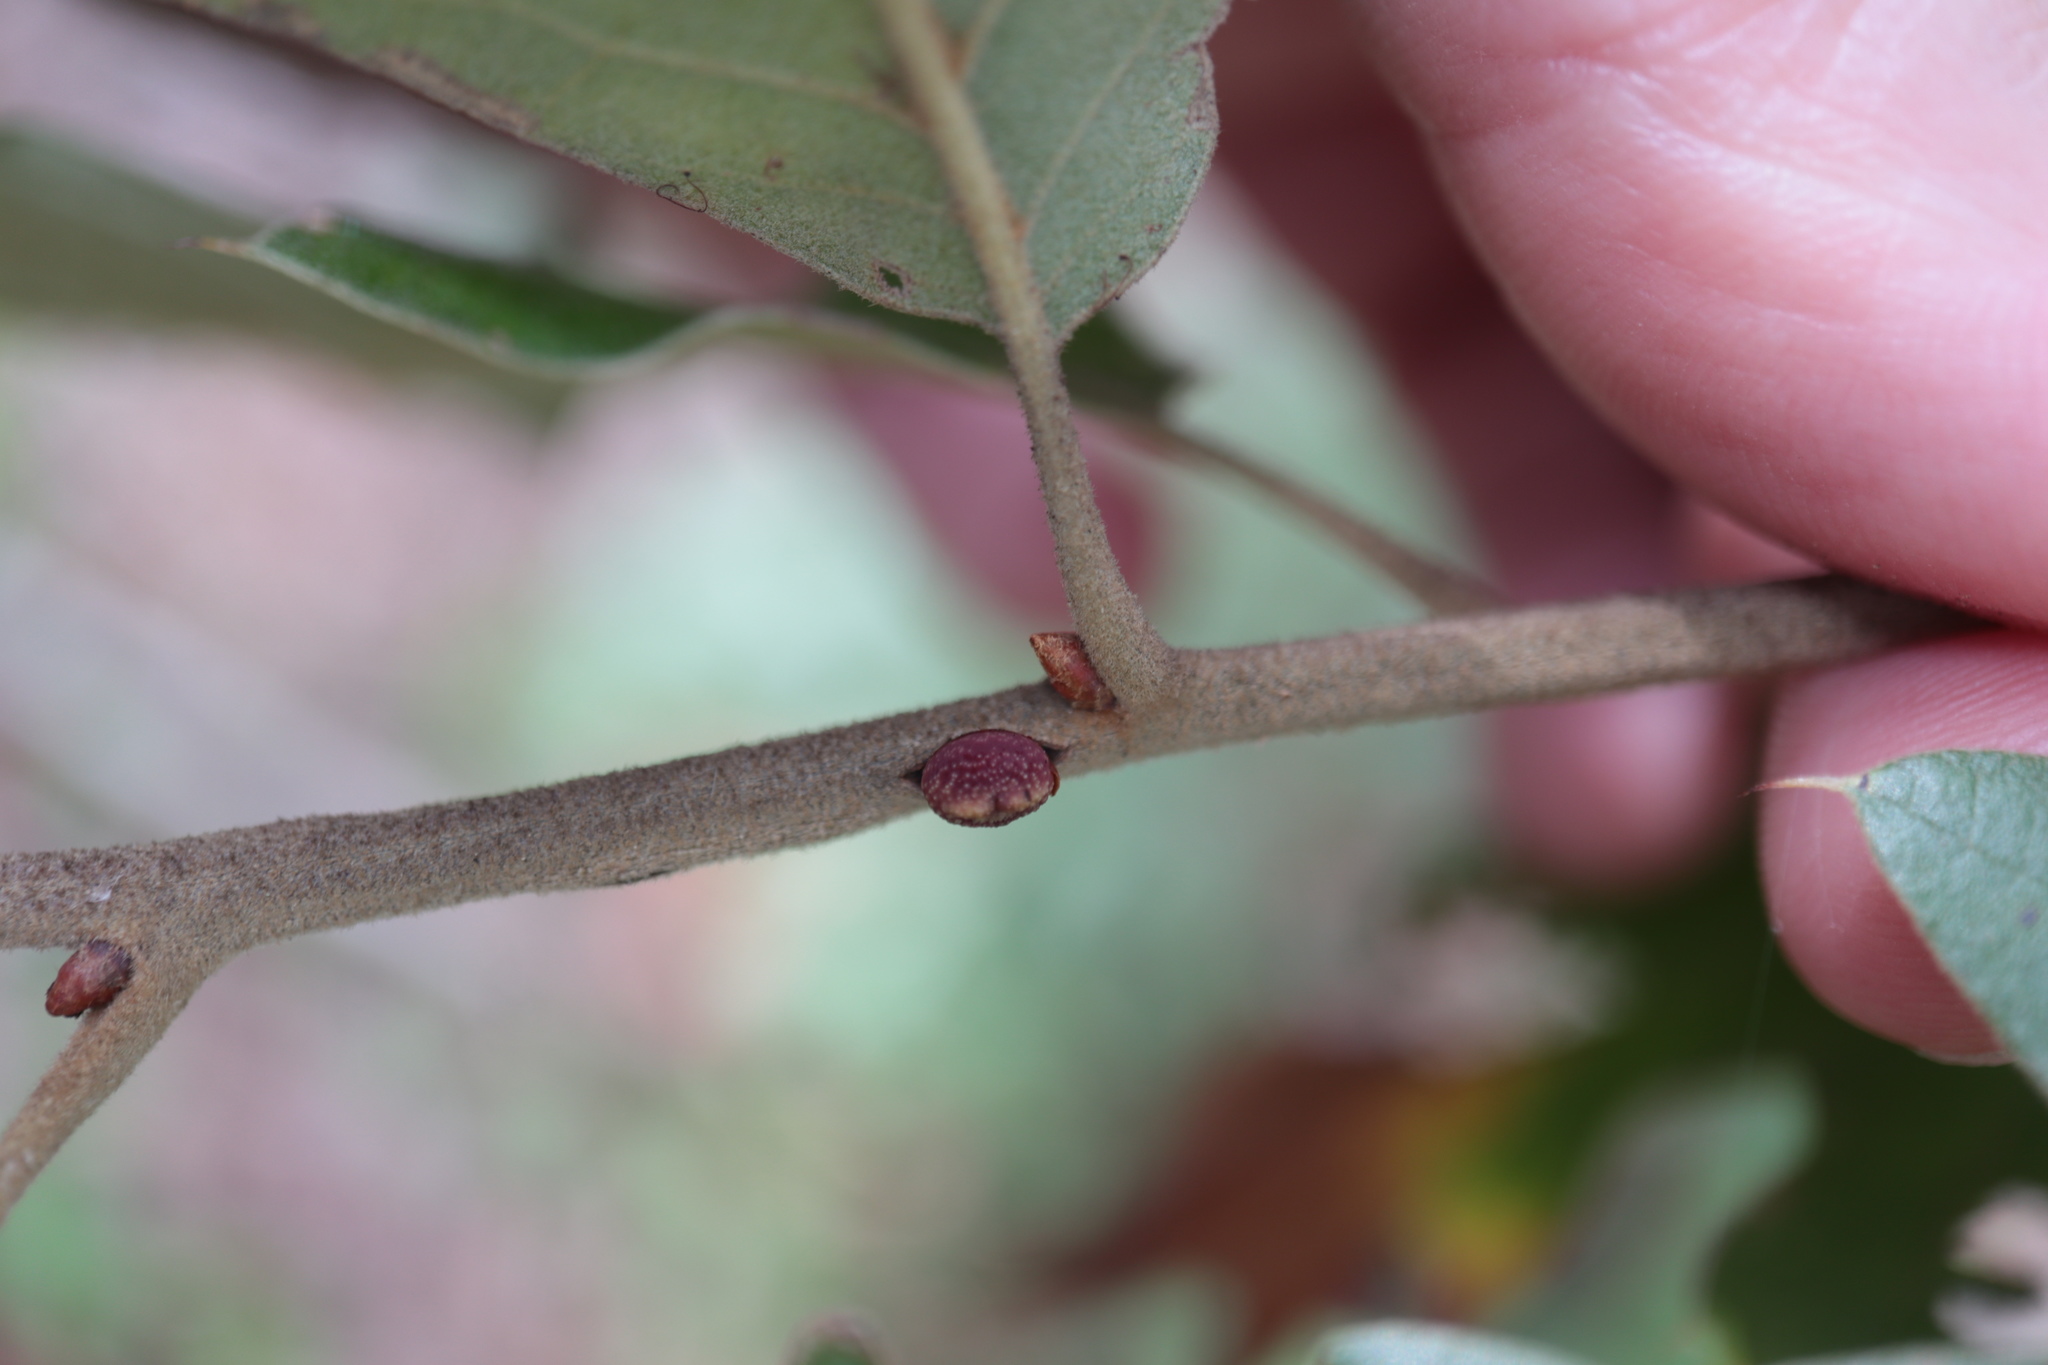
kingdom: Animalia
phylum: Arthropoda
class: Insecta
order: Hymenoptera
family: Cynipidae
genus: Kokkocynips
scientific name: Kokkocynips imbricariae
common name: Banded bullet gall wasp
